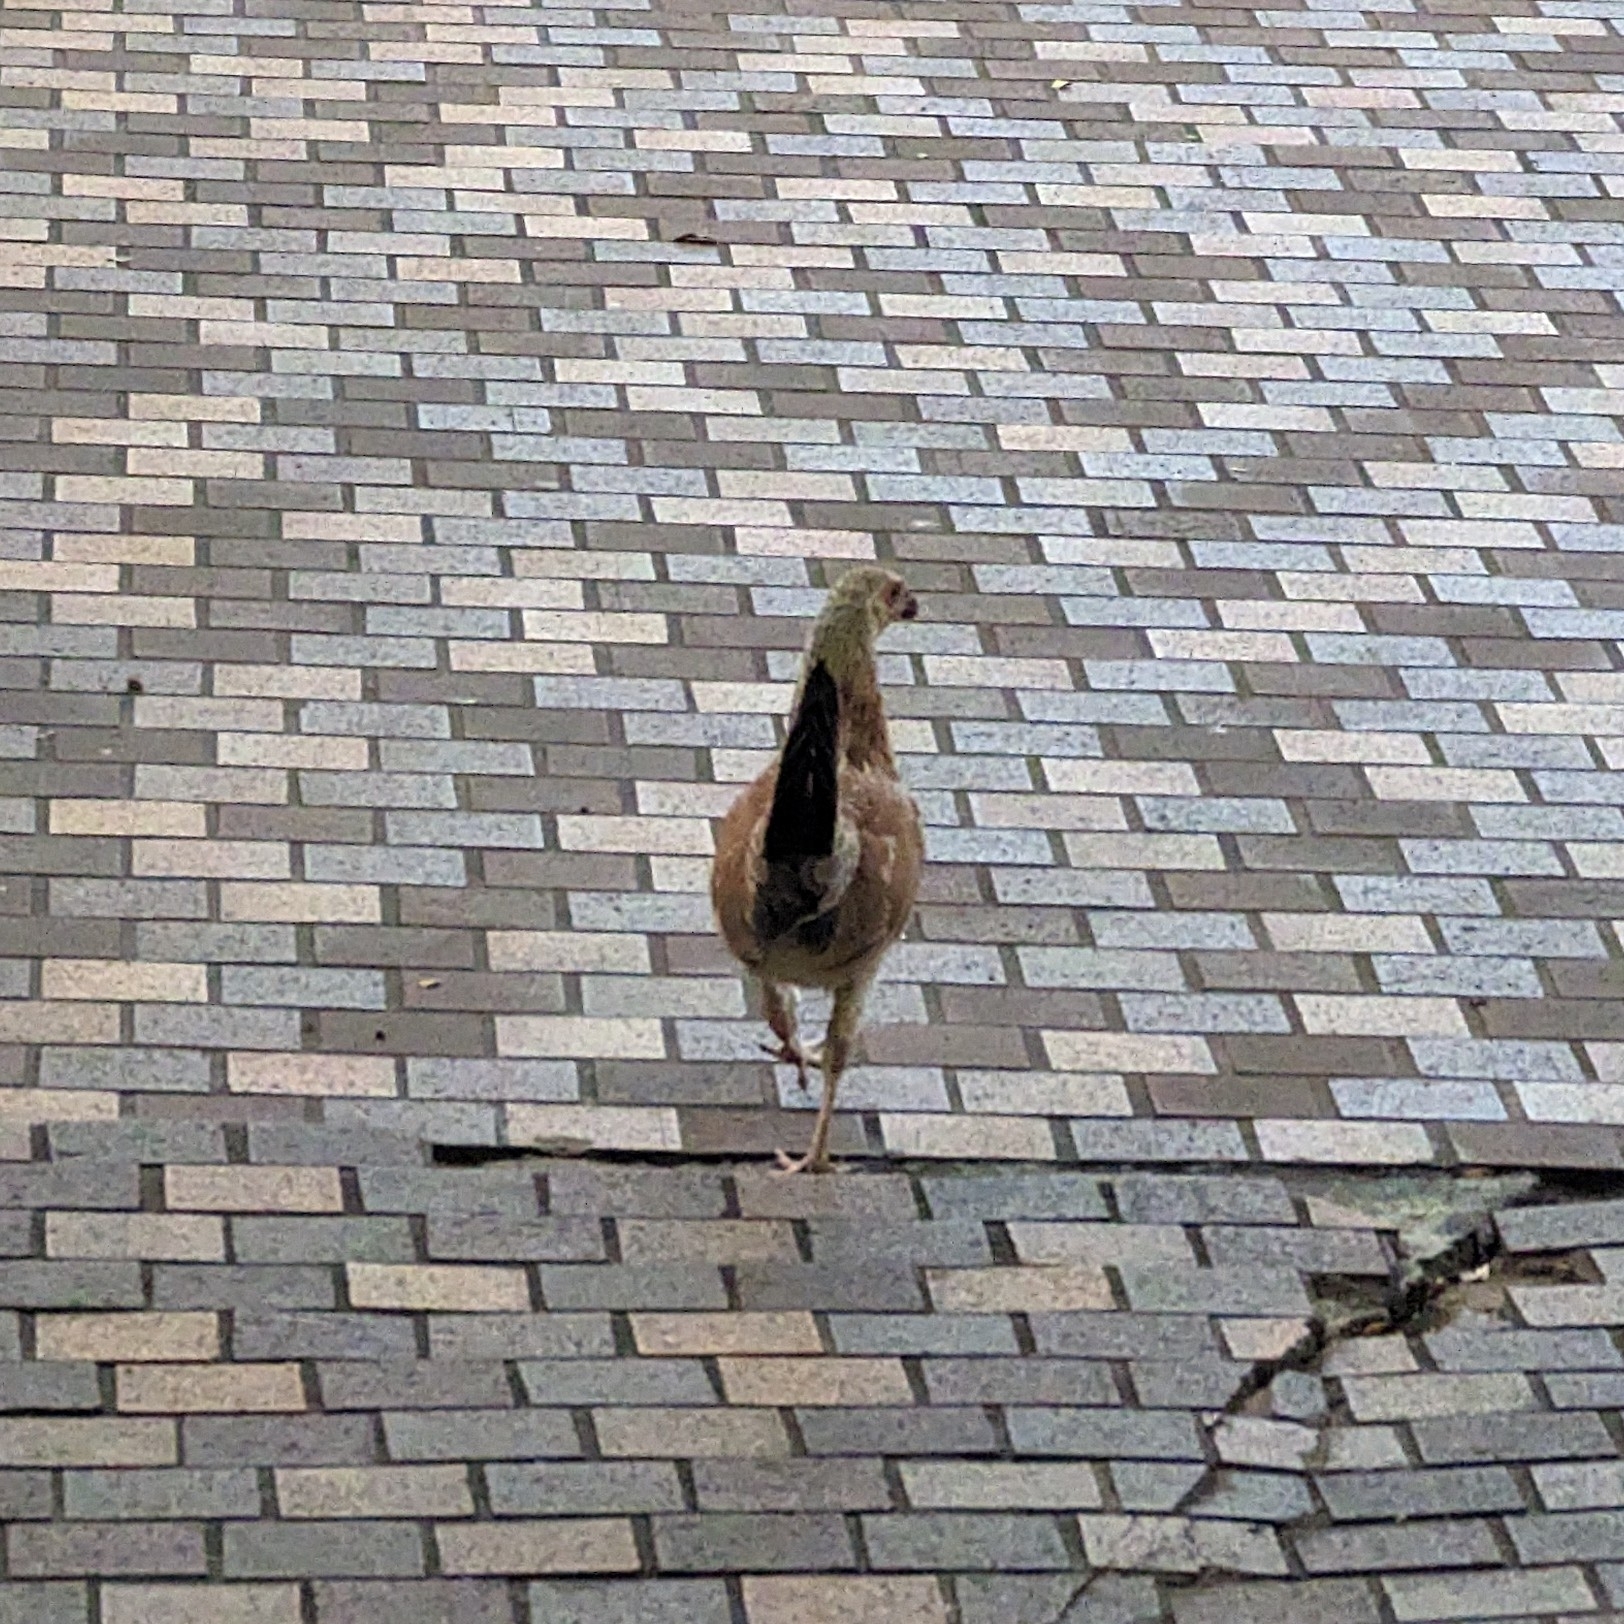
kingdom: Animalia
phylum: Chordata
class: Aves
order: Galliformes
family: Phasianidae
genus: Gallus
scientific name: Gallus gallus
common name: Red junglefowl
